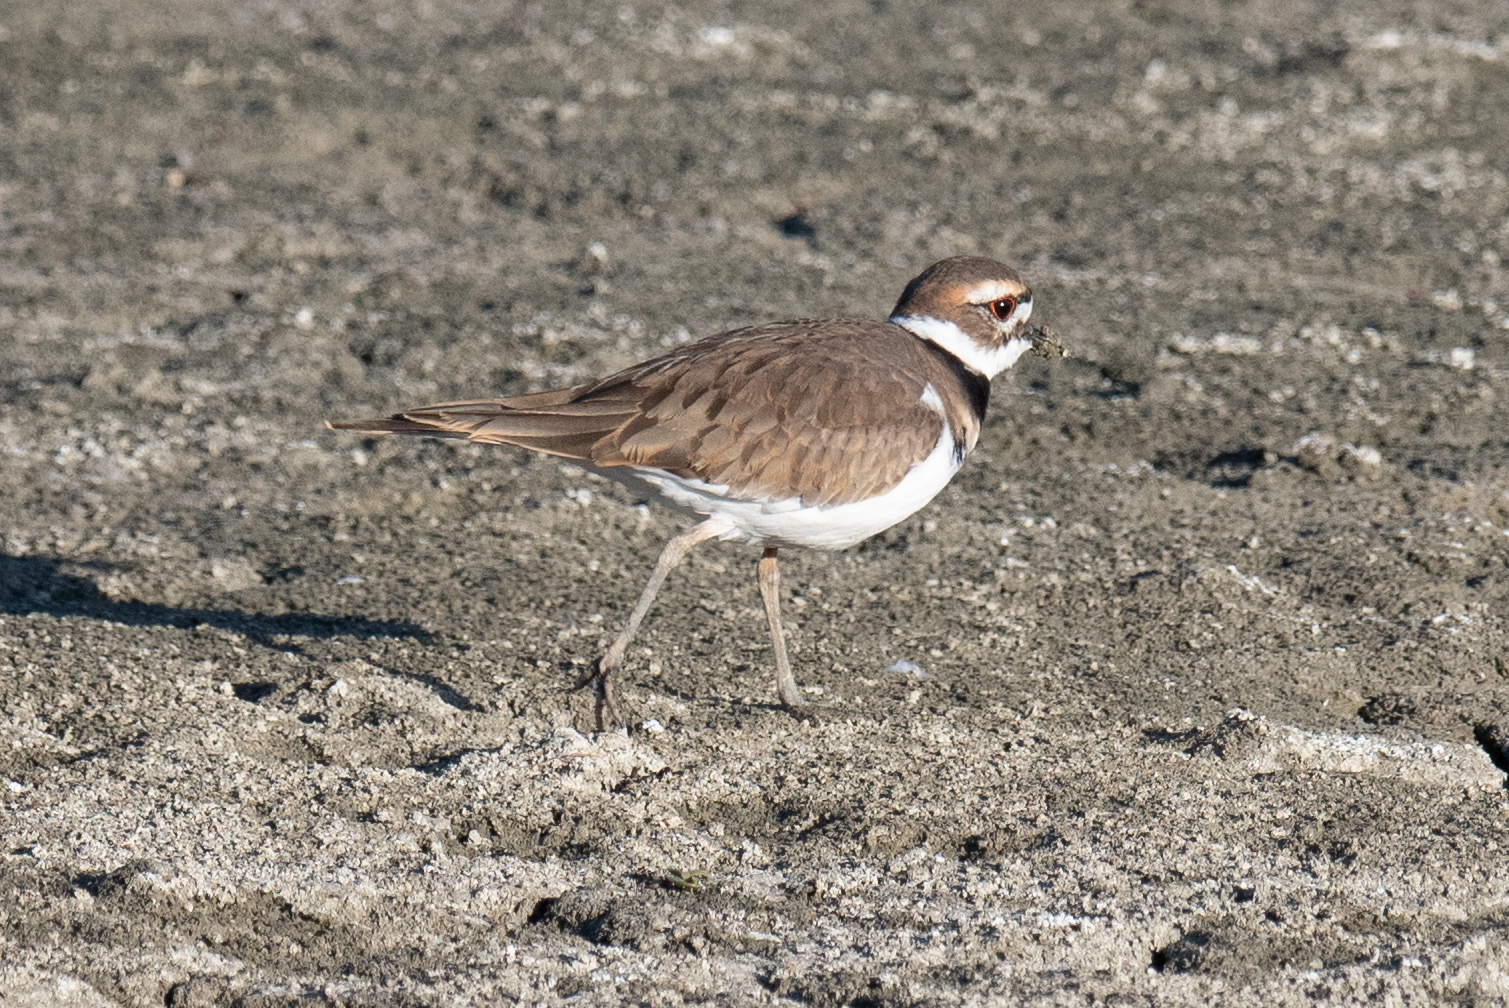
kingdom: Animalia
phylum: Chordata
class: Aves
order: Charadriiformes
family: Charadriidae
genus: Charadrius
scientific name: Charadrius vociferus
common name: Killdeer
